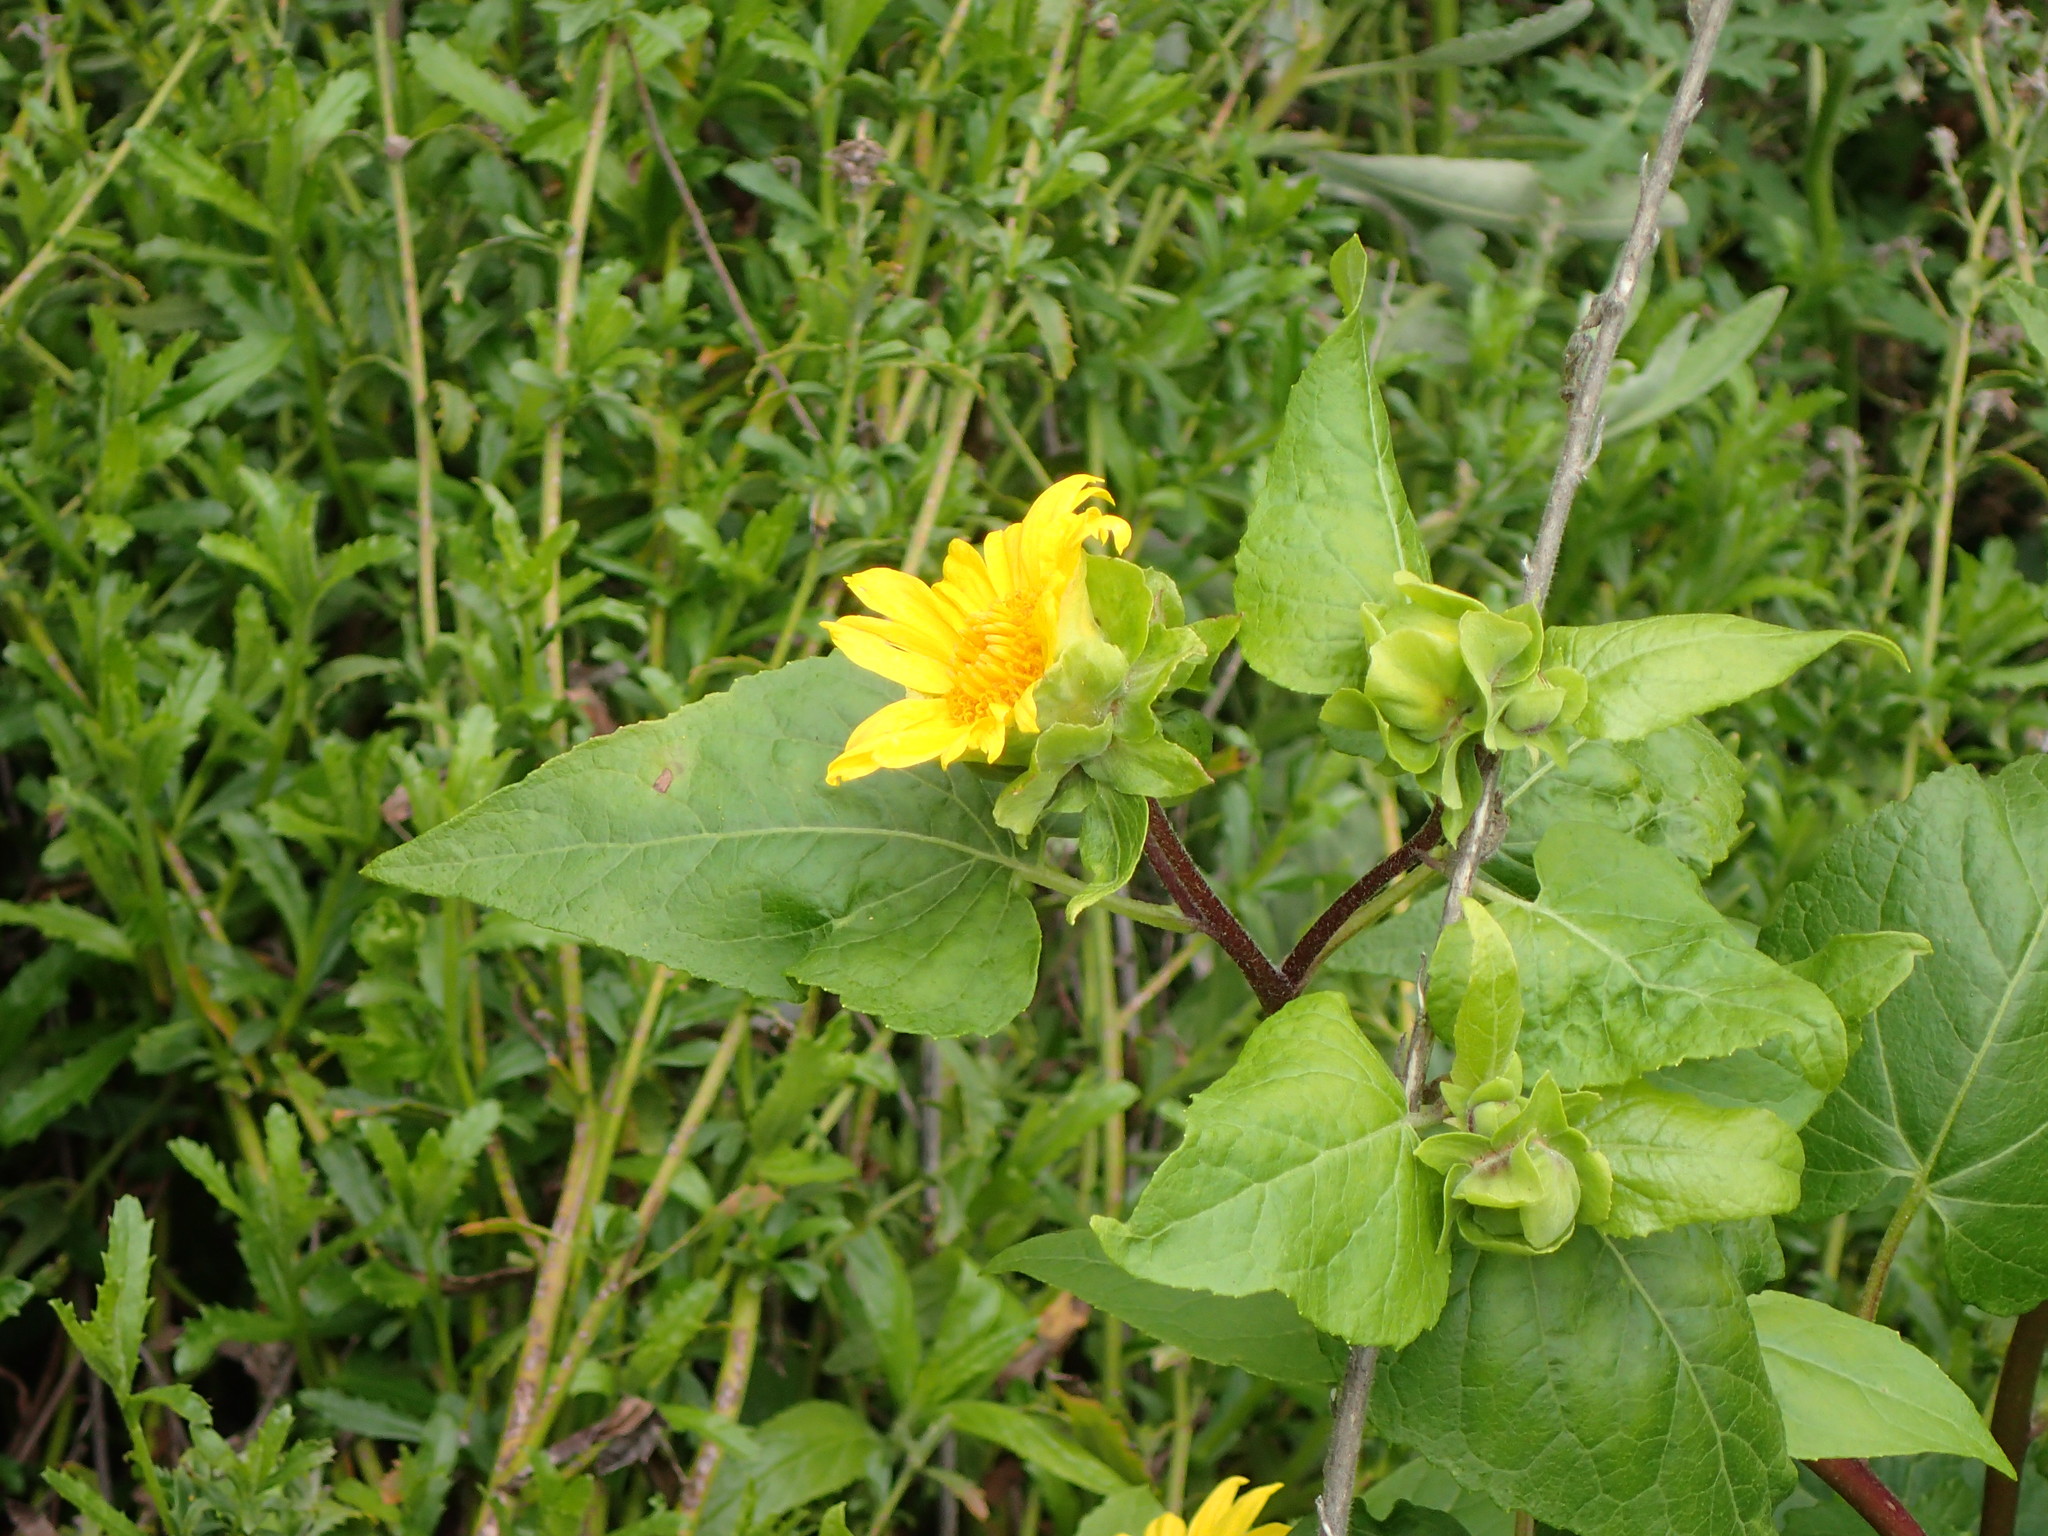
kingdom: Plantae
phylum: Tracheophyta
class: Magnoliopsida
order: Asterales
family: Asteraceae
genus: Venegasia
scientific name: Venegasia carpesioides
